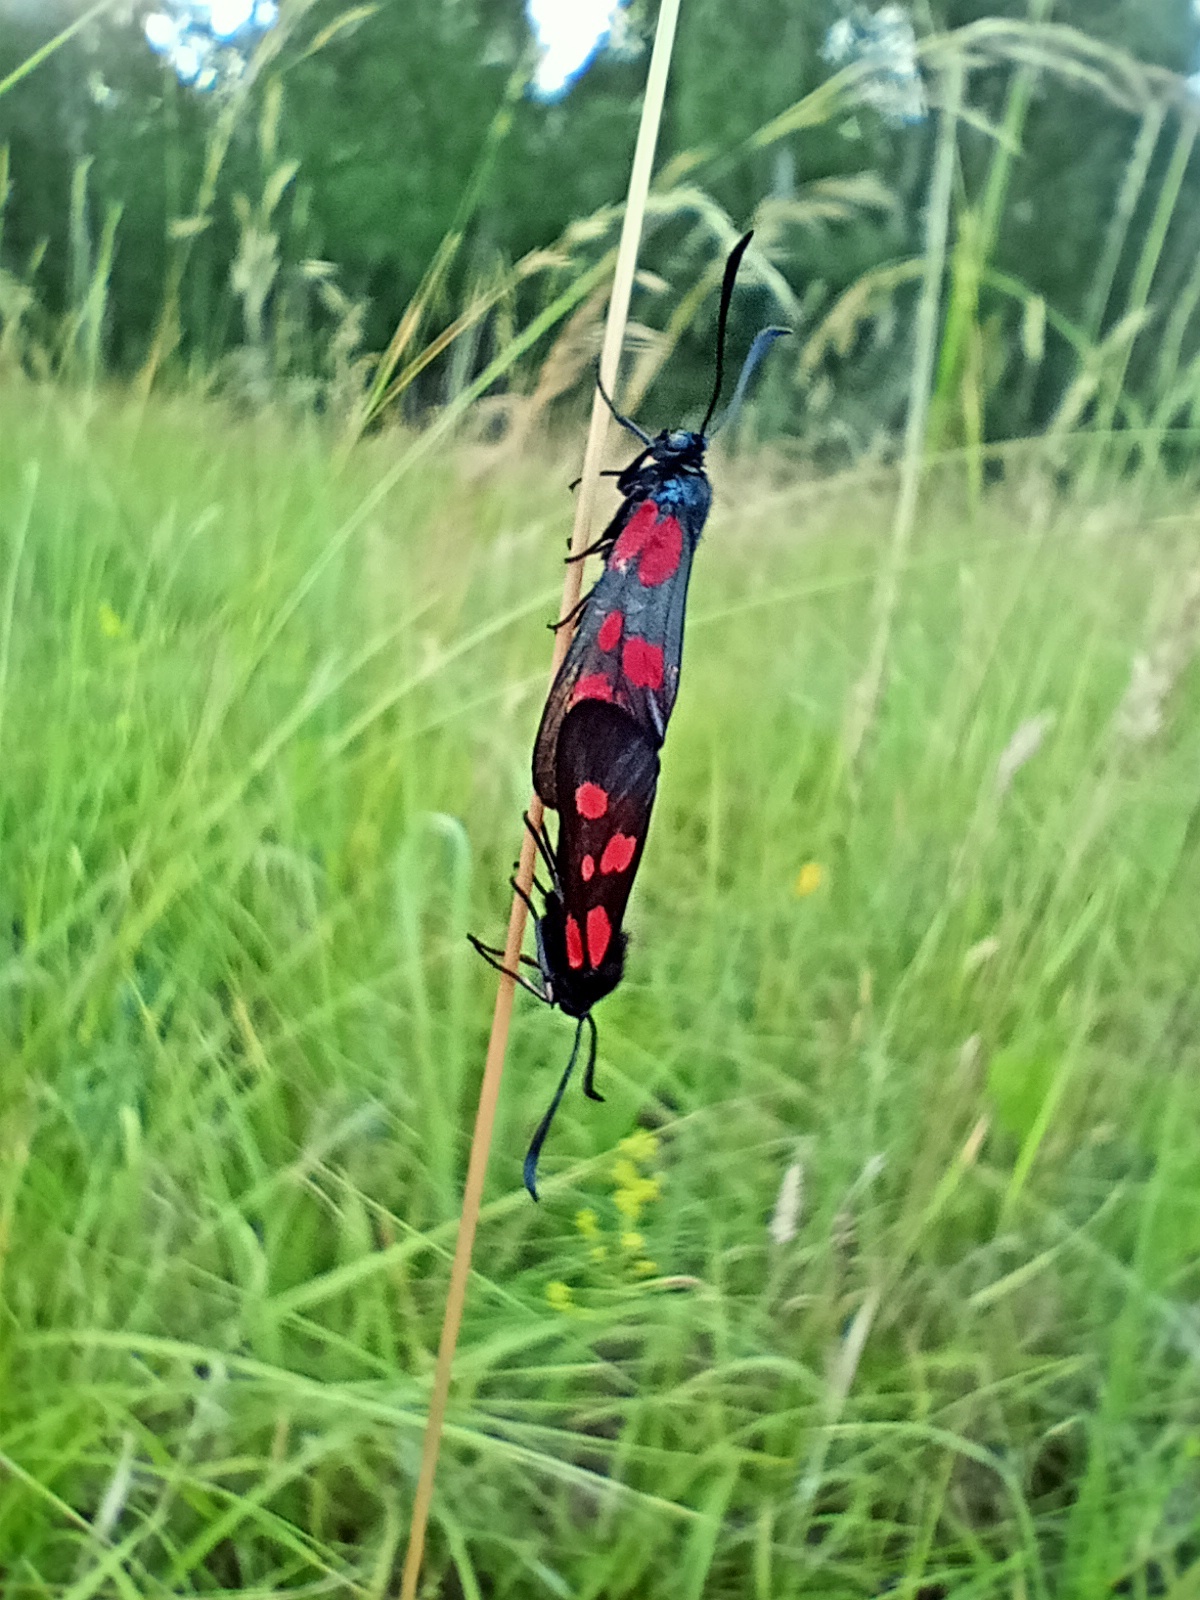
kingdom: Animalia
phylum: Arthropoda
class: Insecta
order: Lepidoptera
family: Zygaenidae
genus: Zygaena
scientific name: Zygaena viciae
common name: New forest burnet
